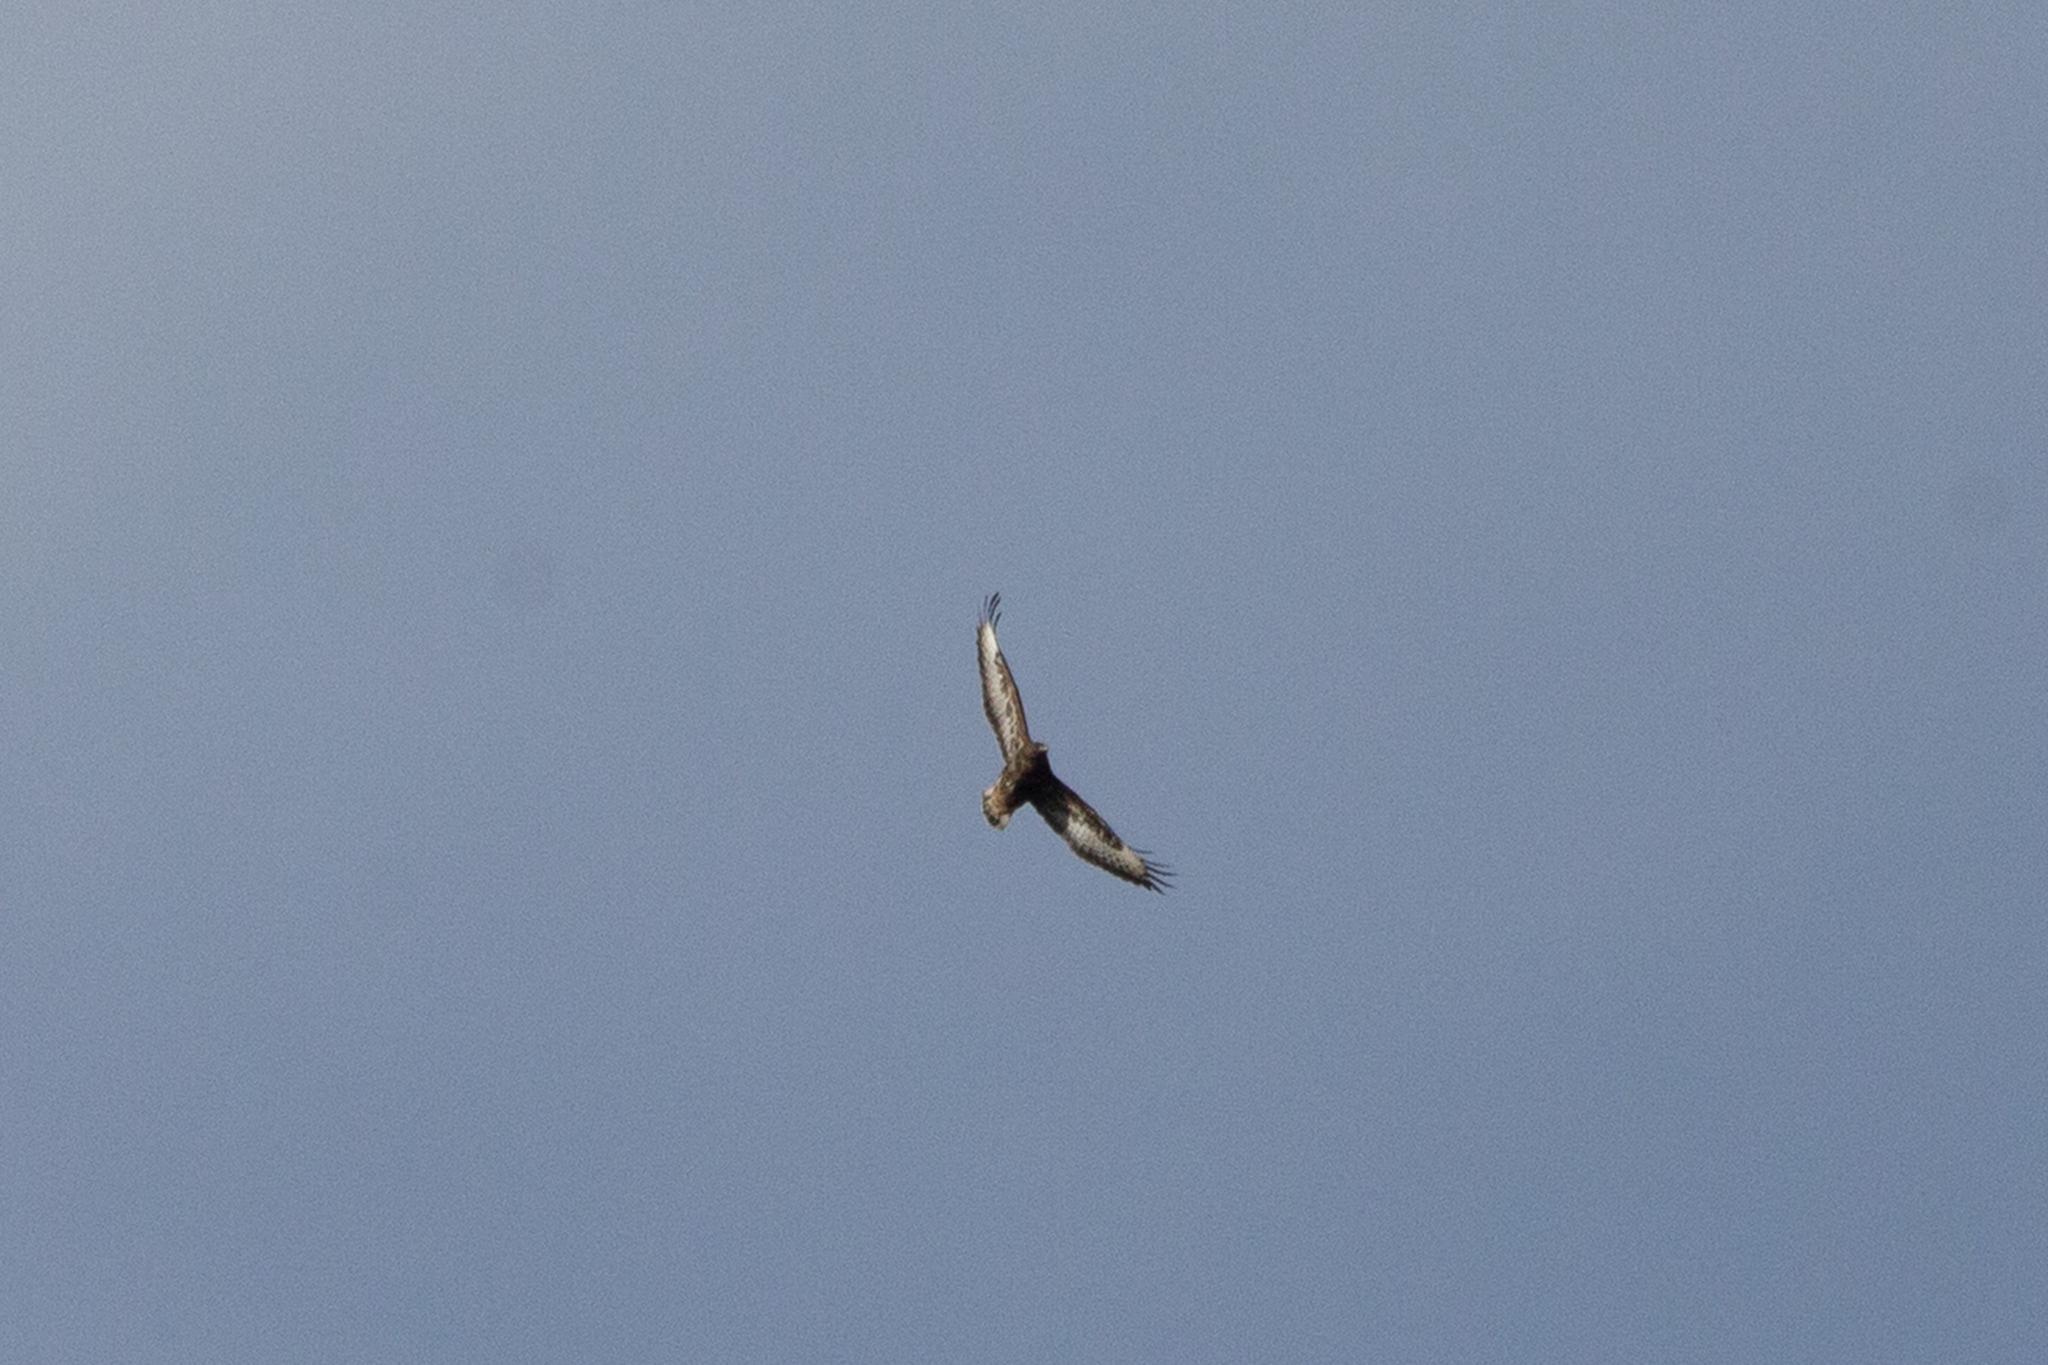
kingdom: Animalia
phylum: Chordata
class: Aves
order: Accipitriformes
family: Accipitridae
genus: Buteo
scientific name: Buteo buteo
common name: Common buzzard
